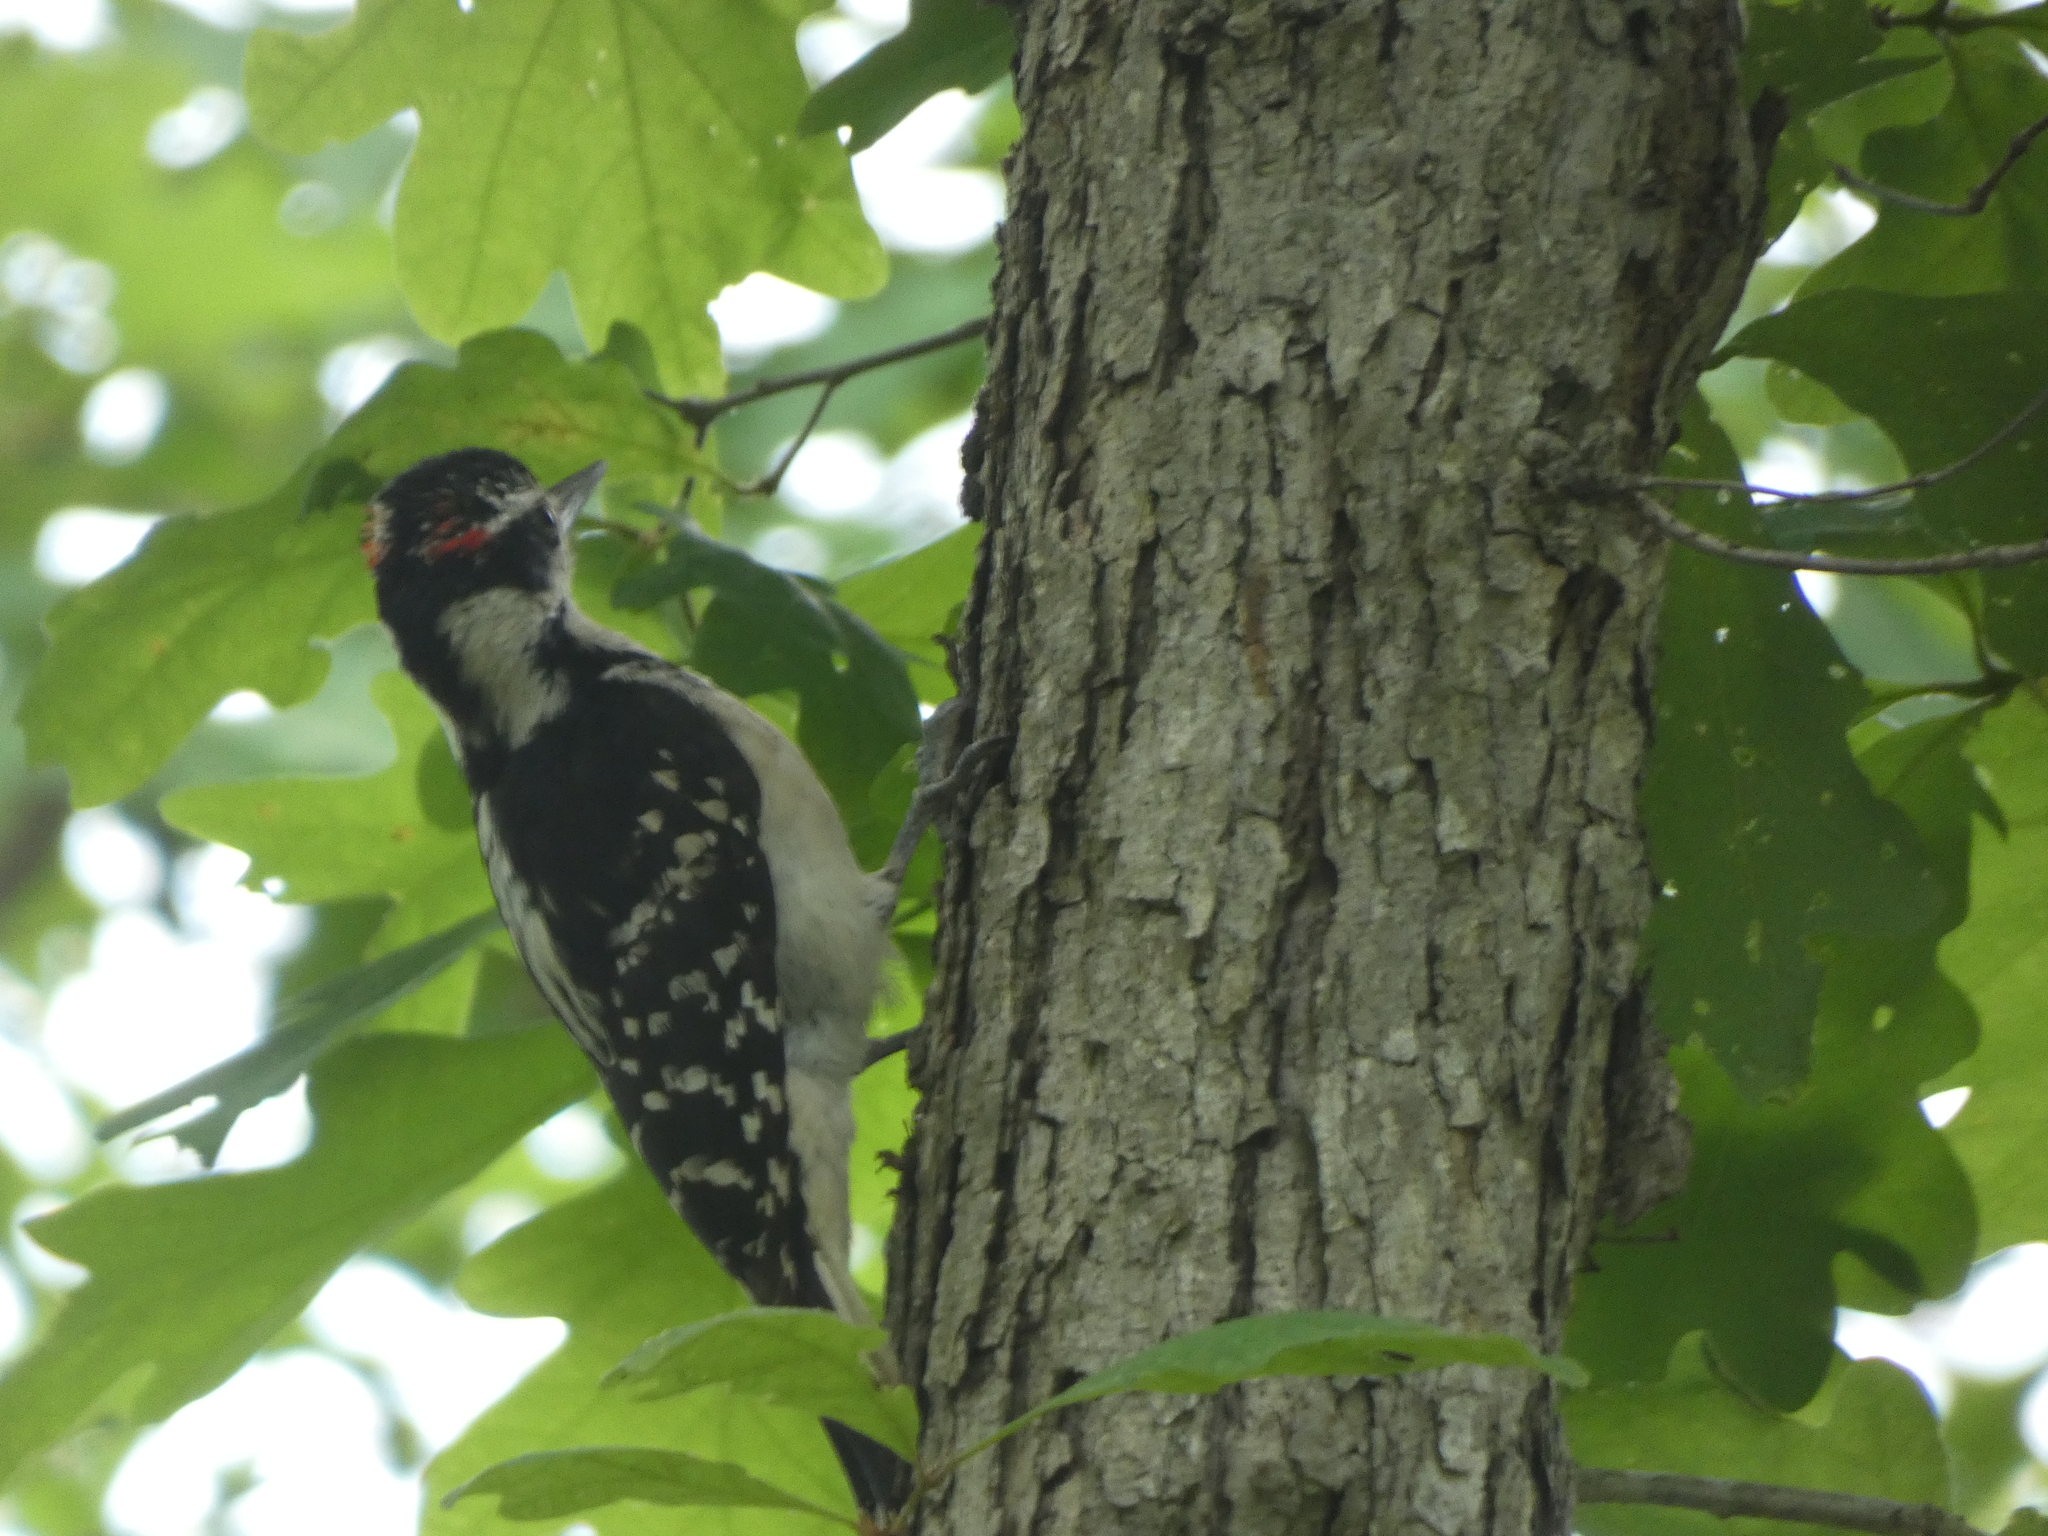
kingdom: Animalia
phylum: Chordata
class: Aves
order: Piciformes
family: Picidae
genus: Leuconotopicus
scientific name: Leuconotopicus villosus
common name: Hairy woodpecker
